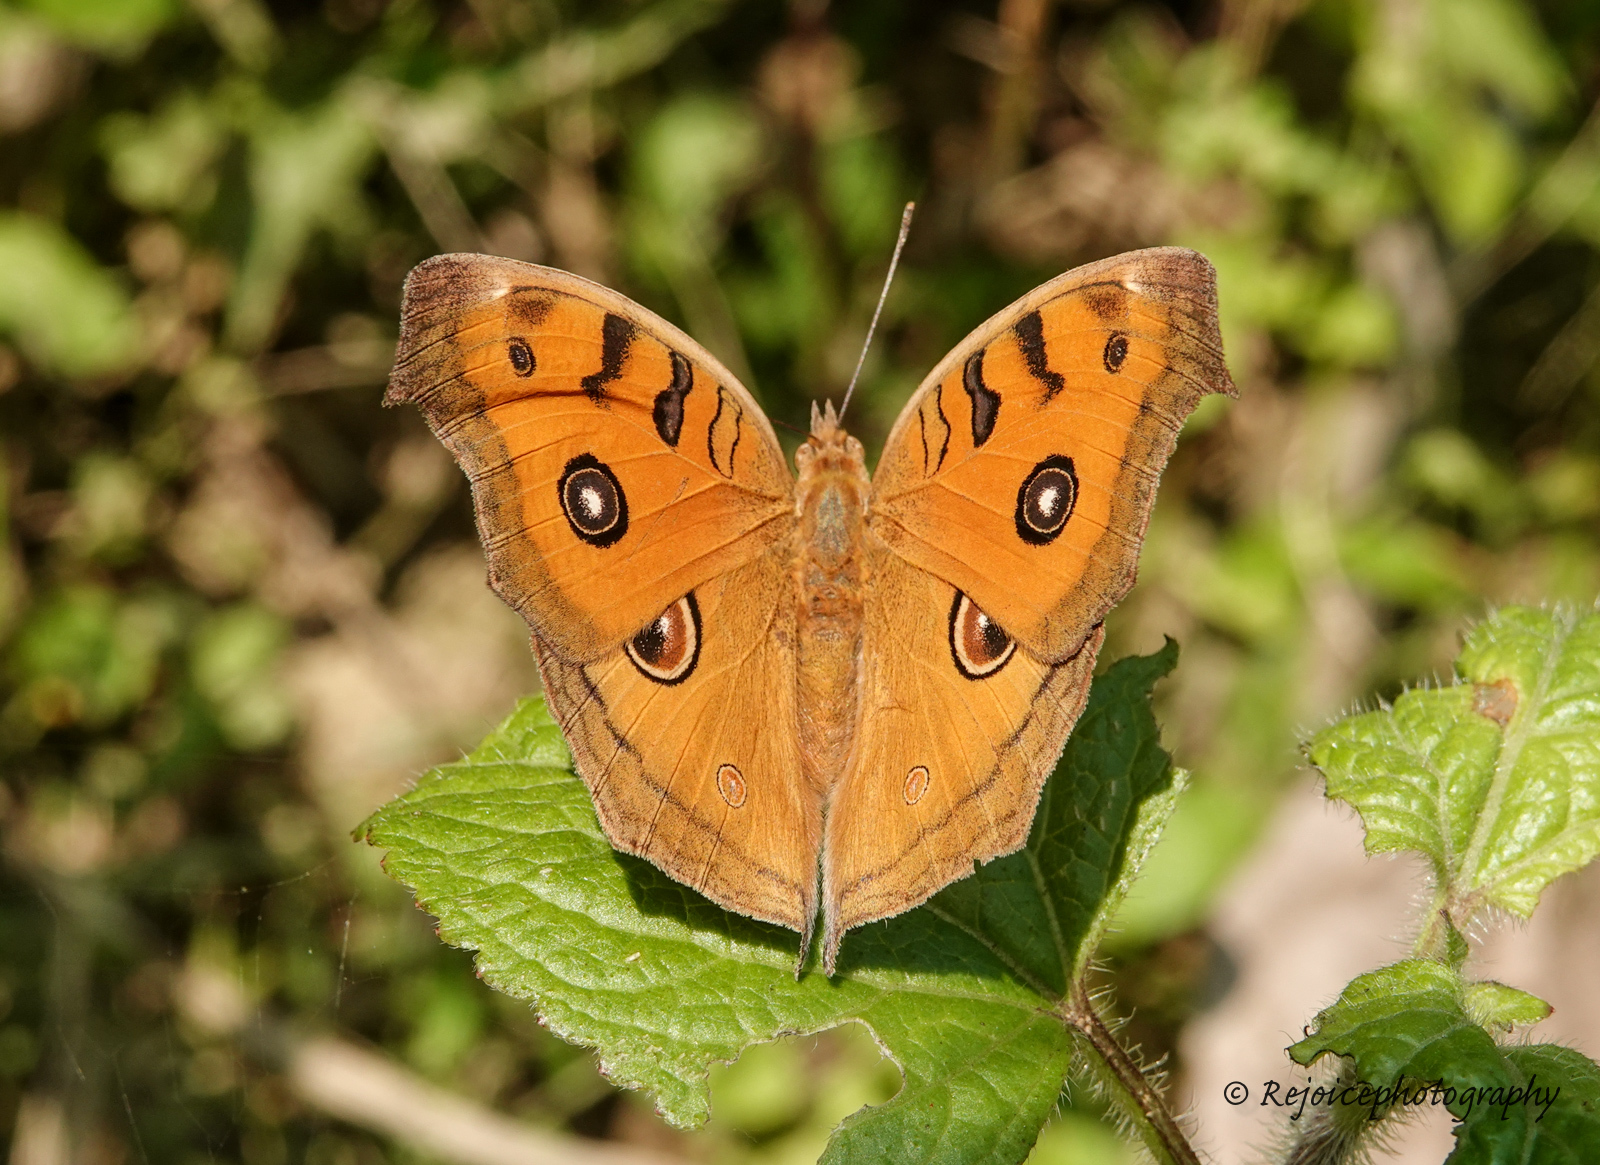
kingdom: Animalia
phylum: Arthropoda
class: Insecta
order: Lepidoptera
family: Nymphalidae
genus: Junonia
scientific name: Junonia almana
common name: Peacock pansy
